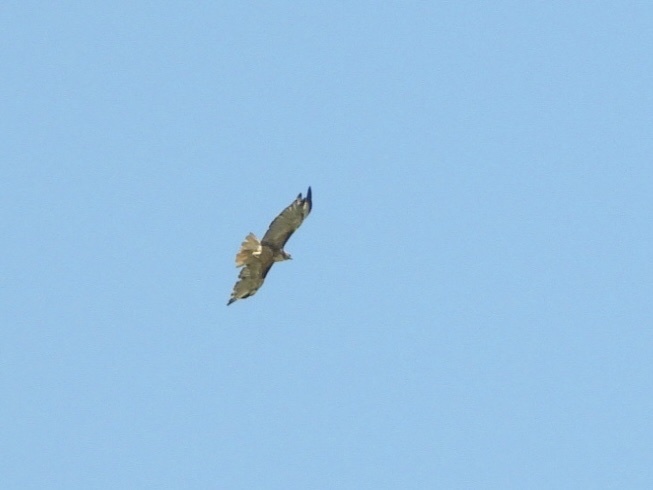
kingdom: Animalia
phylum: Chordata
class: Aves
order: Accipitriformes
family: Accipitridae
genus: Buteo
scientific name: Buteo jamaicensis
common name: Red-tailed hawk
